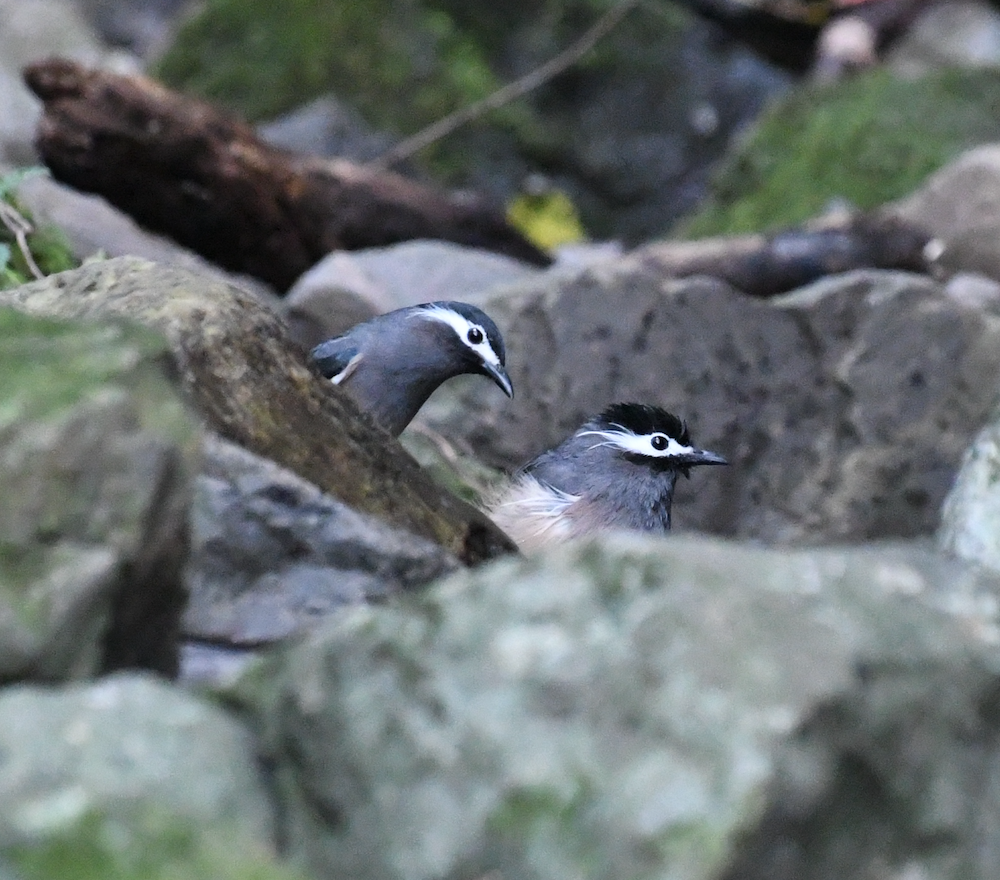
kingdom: Animalia
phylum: Chordata
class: Aves
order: Passeriformes
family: Leiothrichidae
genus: Heterophasia
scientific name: Heterophasia auricularis
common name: White-eared sibia
